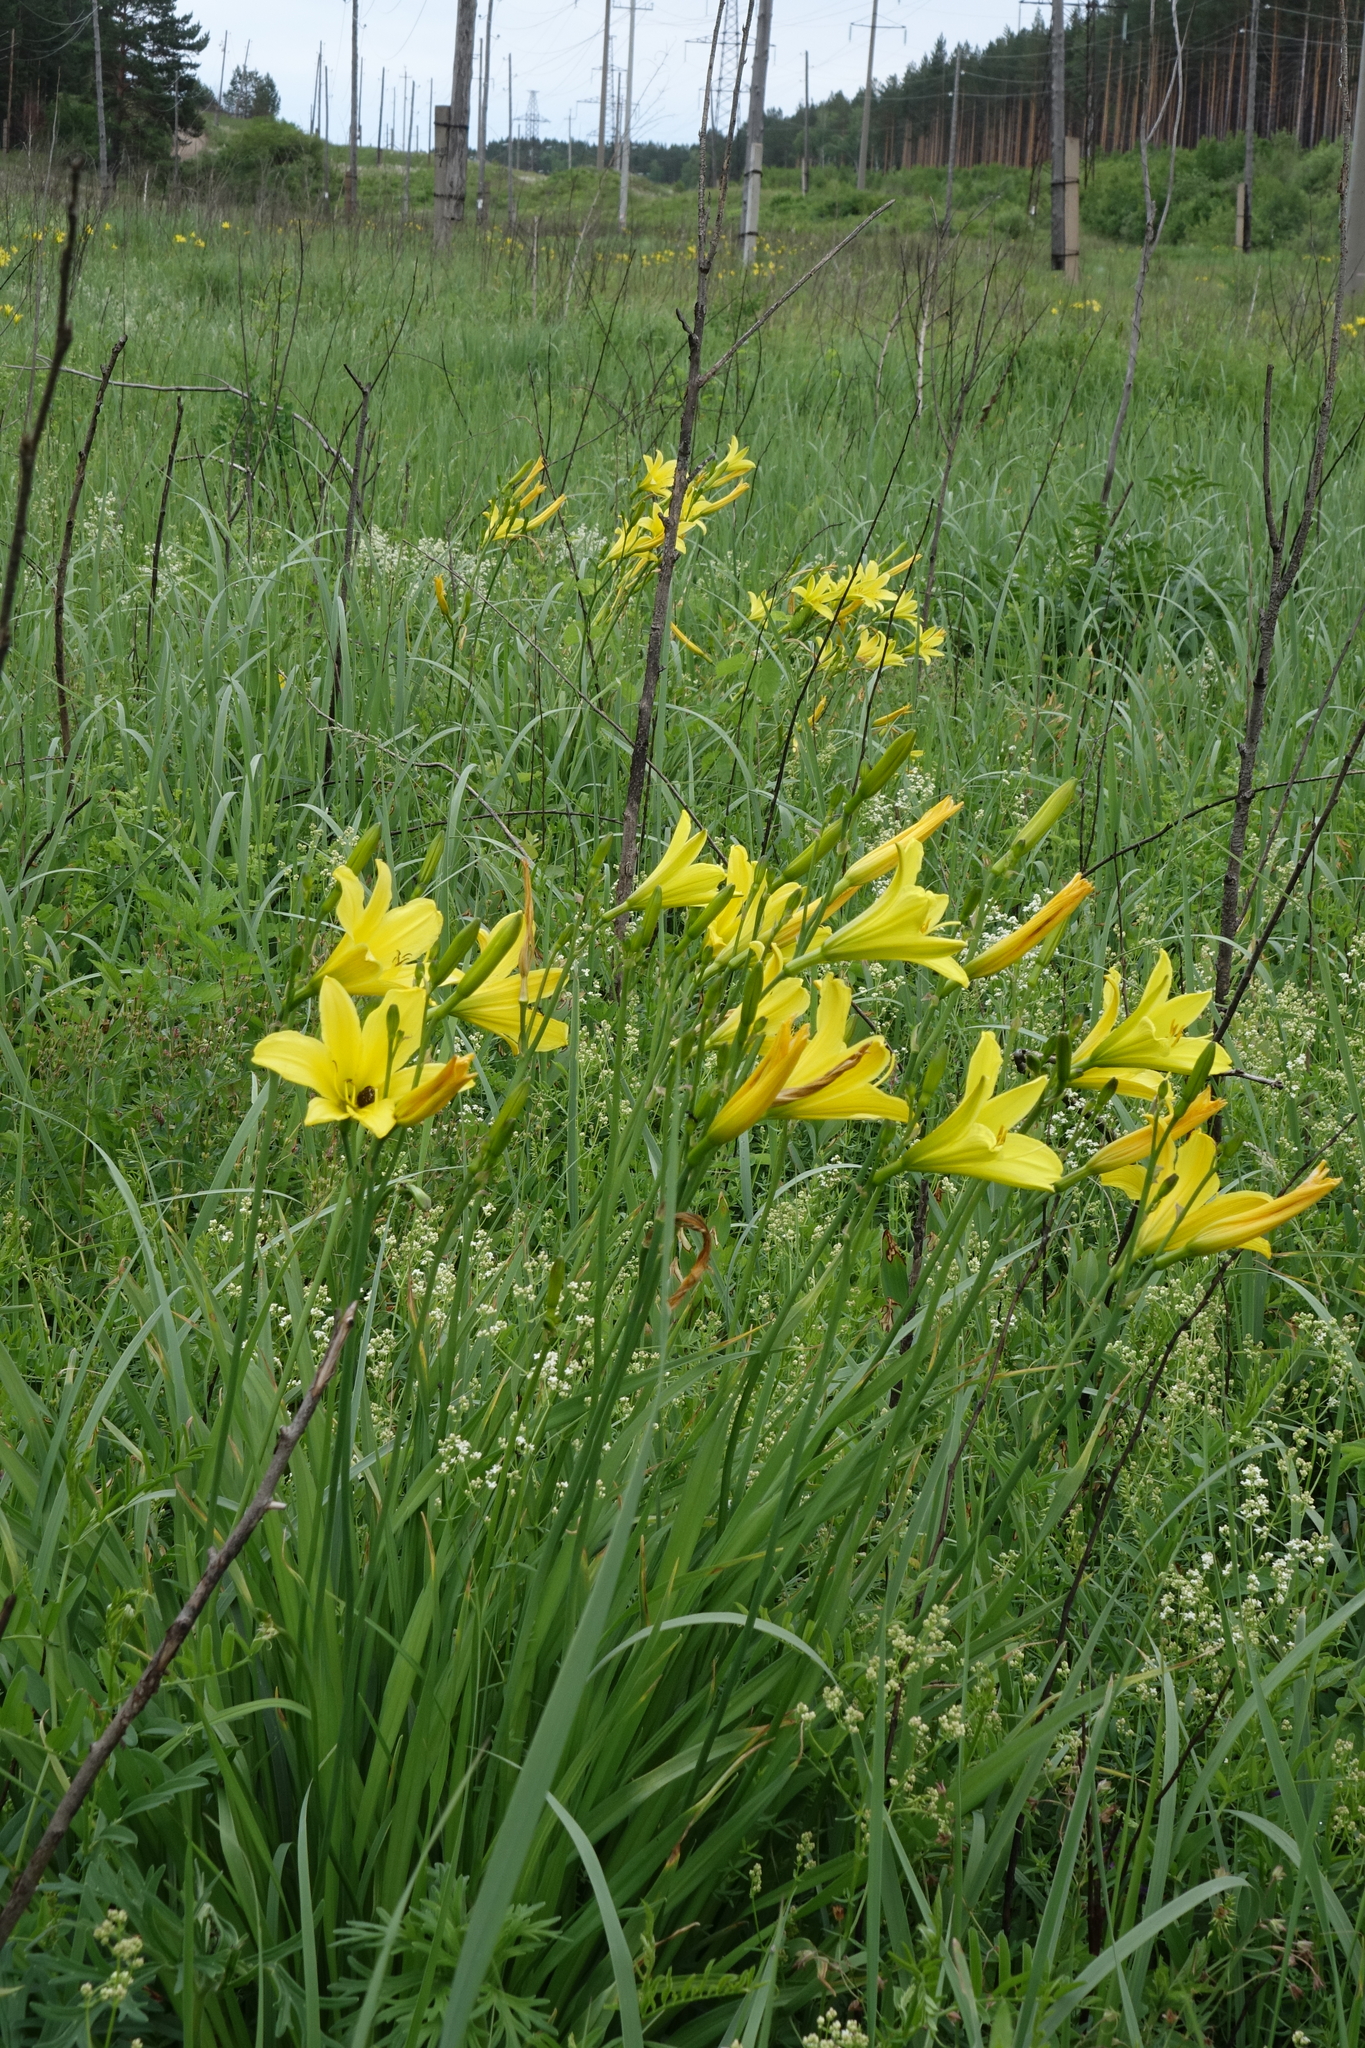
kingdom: Plantae
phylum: Tracheophyta
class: Liliopsida
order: Asparagales
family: Asphodelaceae
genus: Hemerocallis
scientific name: Hemerocallis minor
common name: Small daylily
